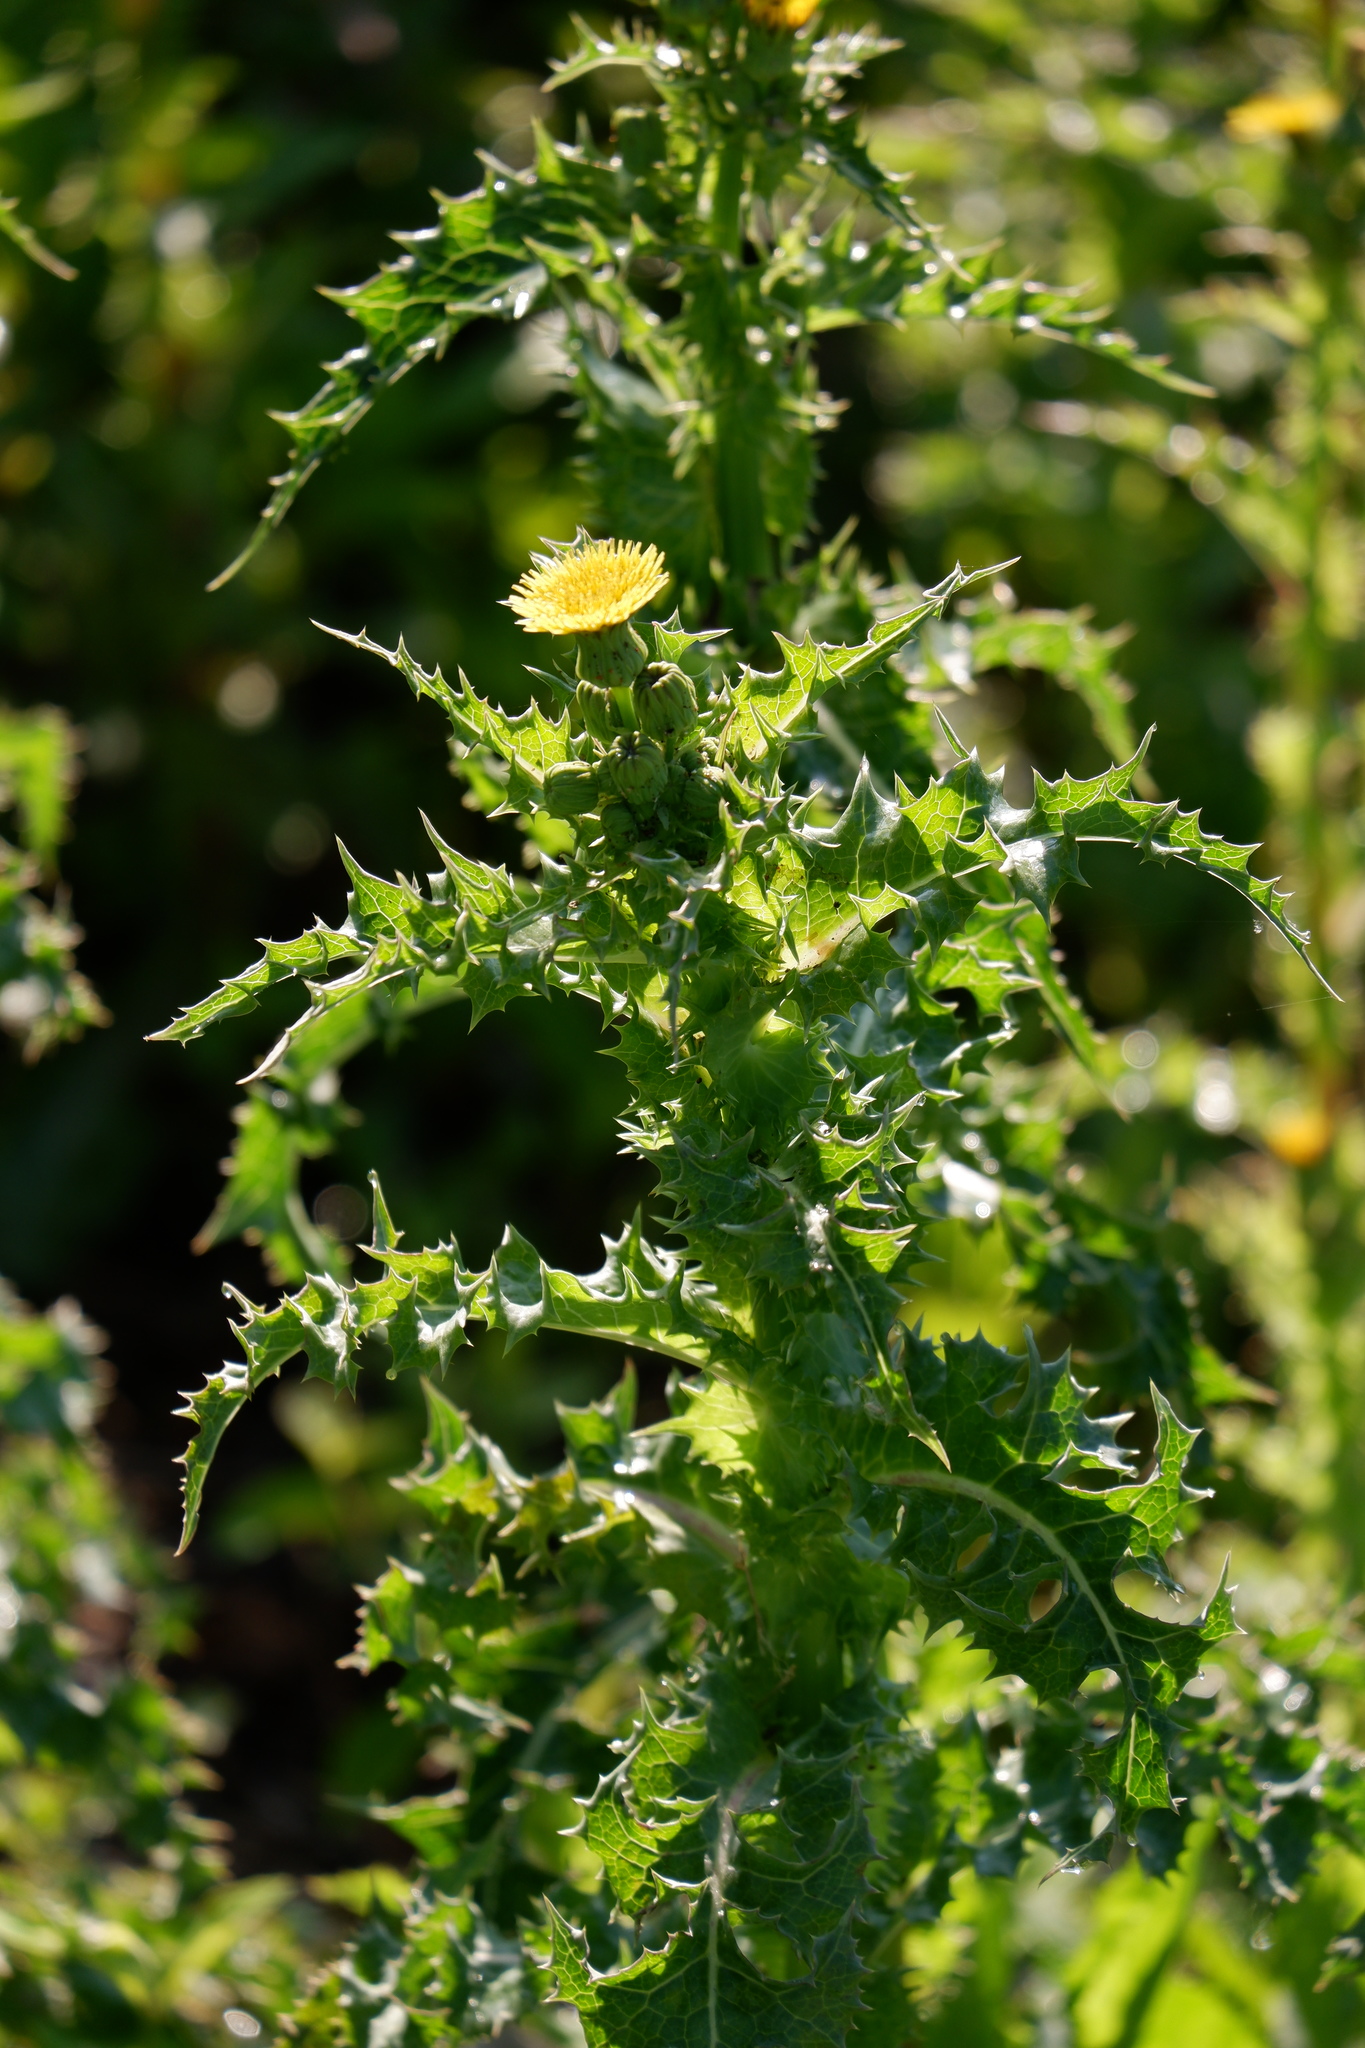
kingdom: Plantae
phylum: Tracheophyta
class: Magnoliopsida
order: Asterales
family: Asteraceae
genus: Sonchus
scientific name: Sonchus asper
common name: Prickly sow-thistle
